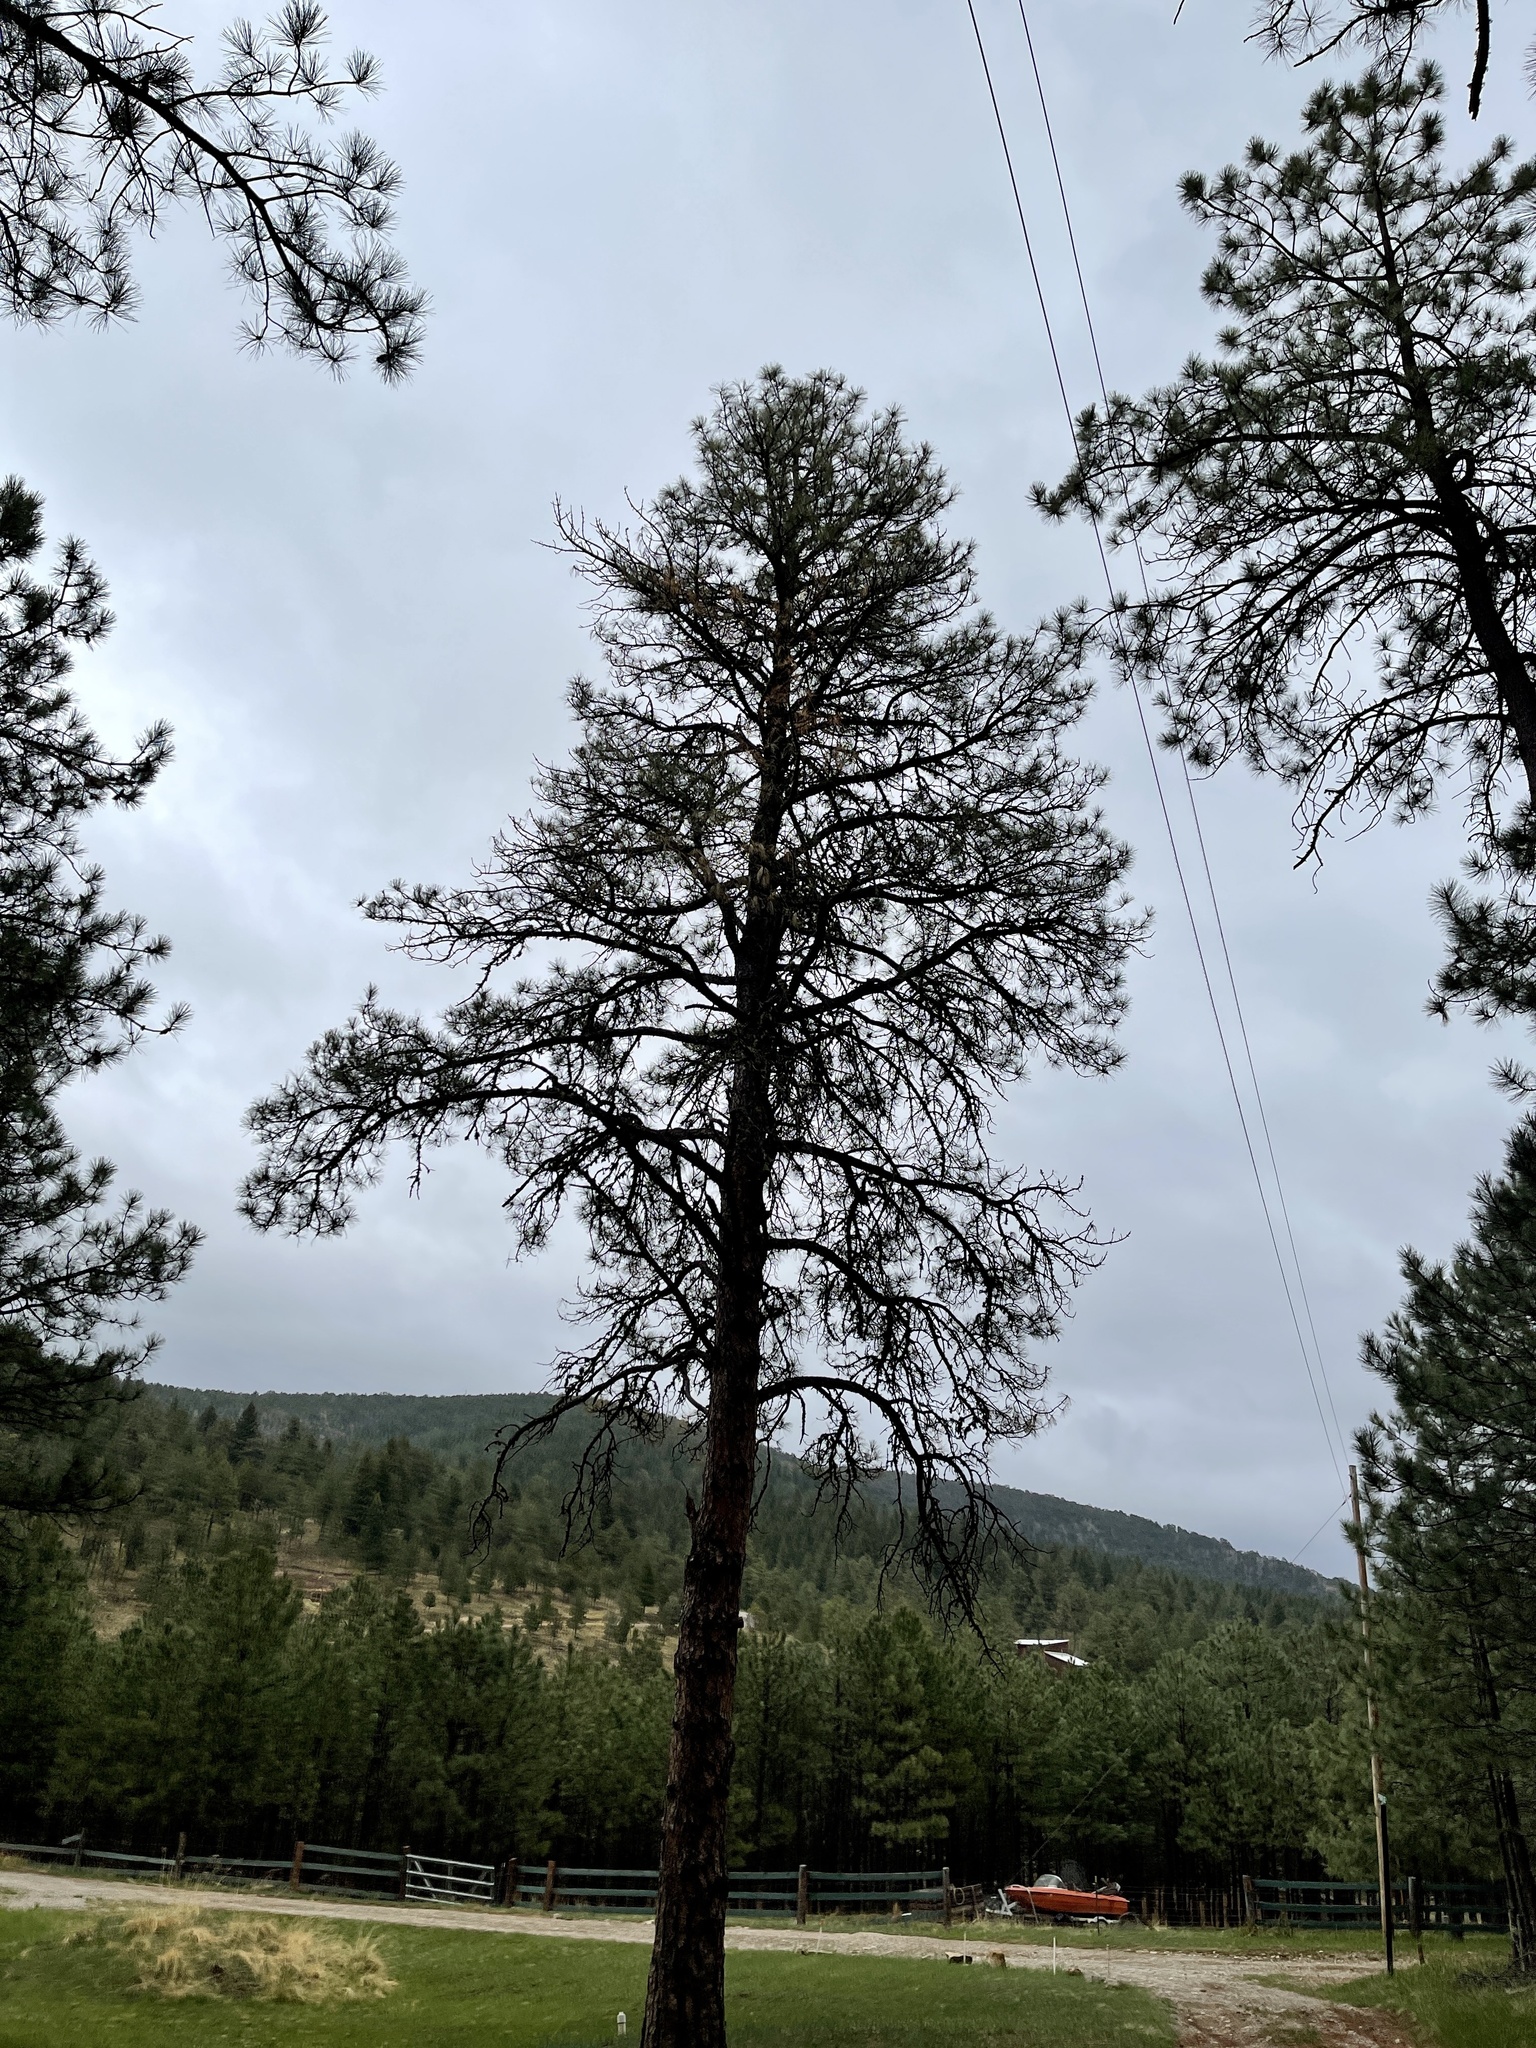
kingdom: Plantae
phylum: Tracheophyta
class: Pinopsida
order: Pinales
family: Pinaceae
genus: Pinus
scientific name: Pinus ponderosa
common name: Western yellow-pine
